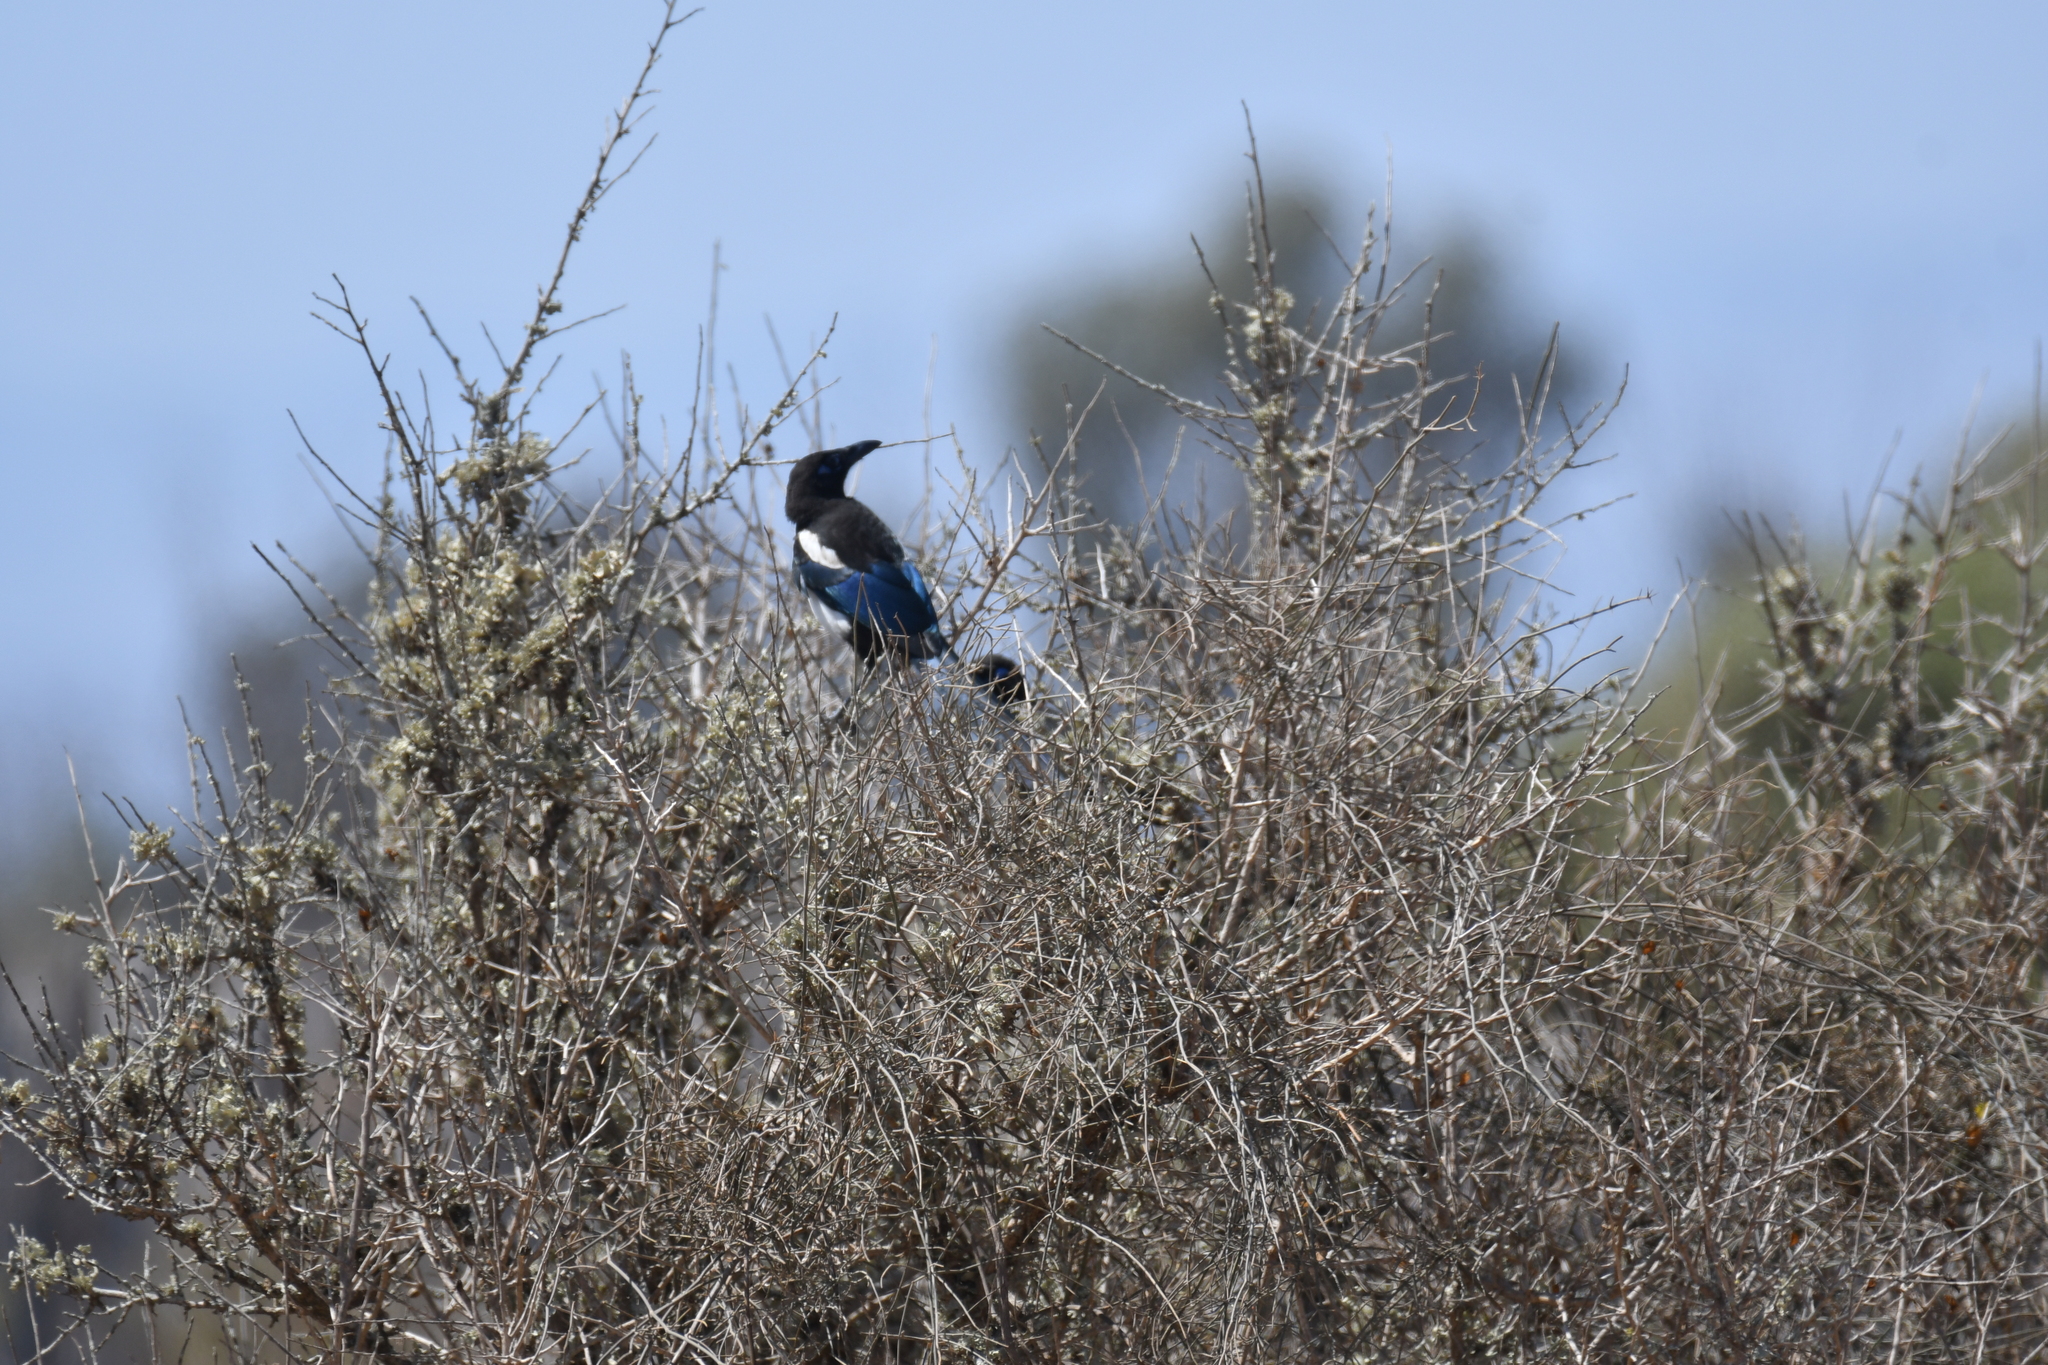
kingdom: Animalia
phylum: Chordata
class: Aves
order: Passeriformes
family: Corvidae
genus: Pica
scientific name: Pica mauritanica
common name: Maghreb magpie
